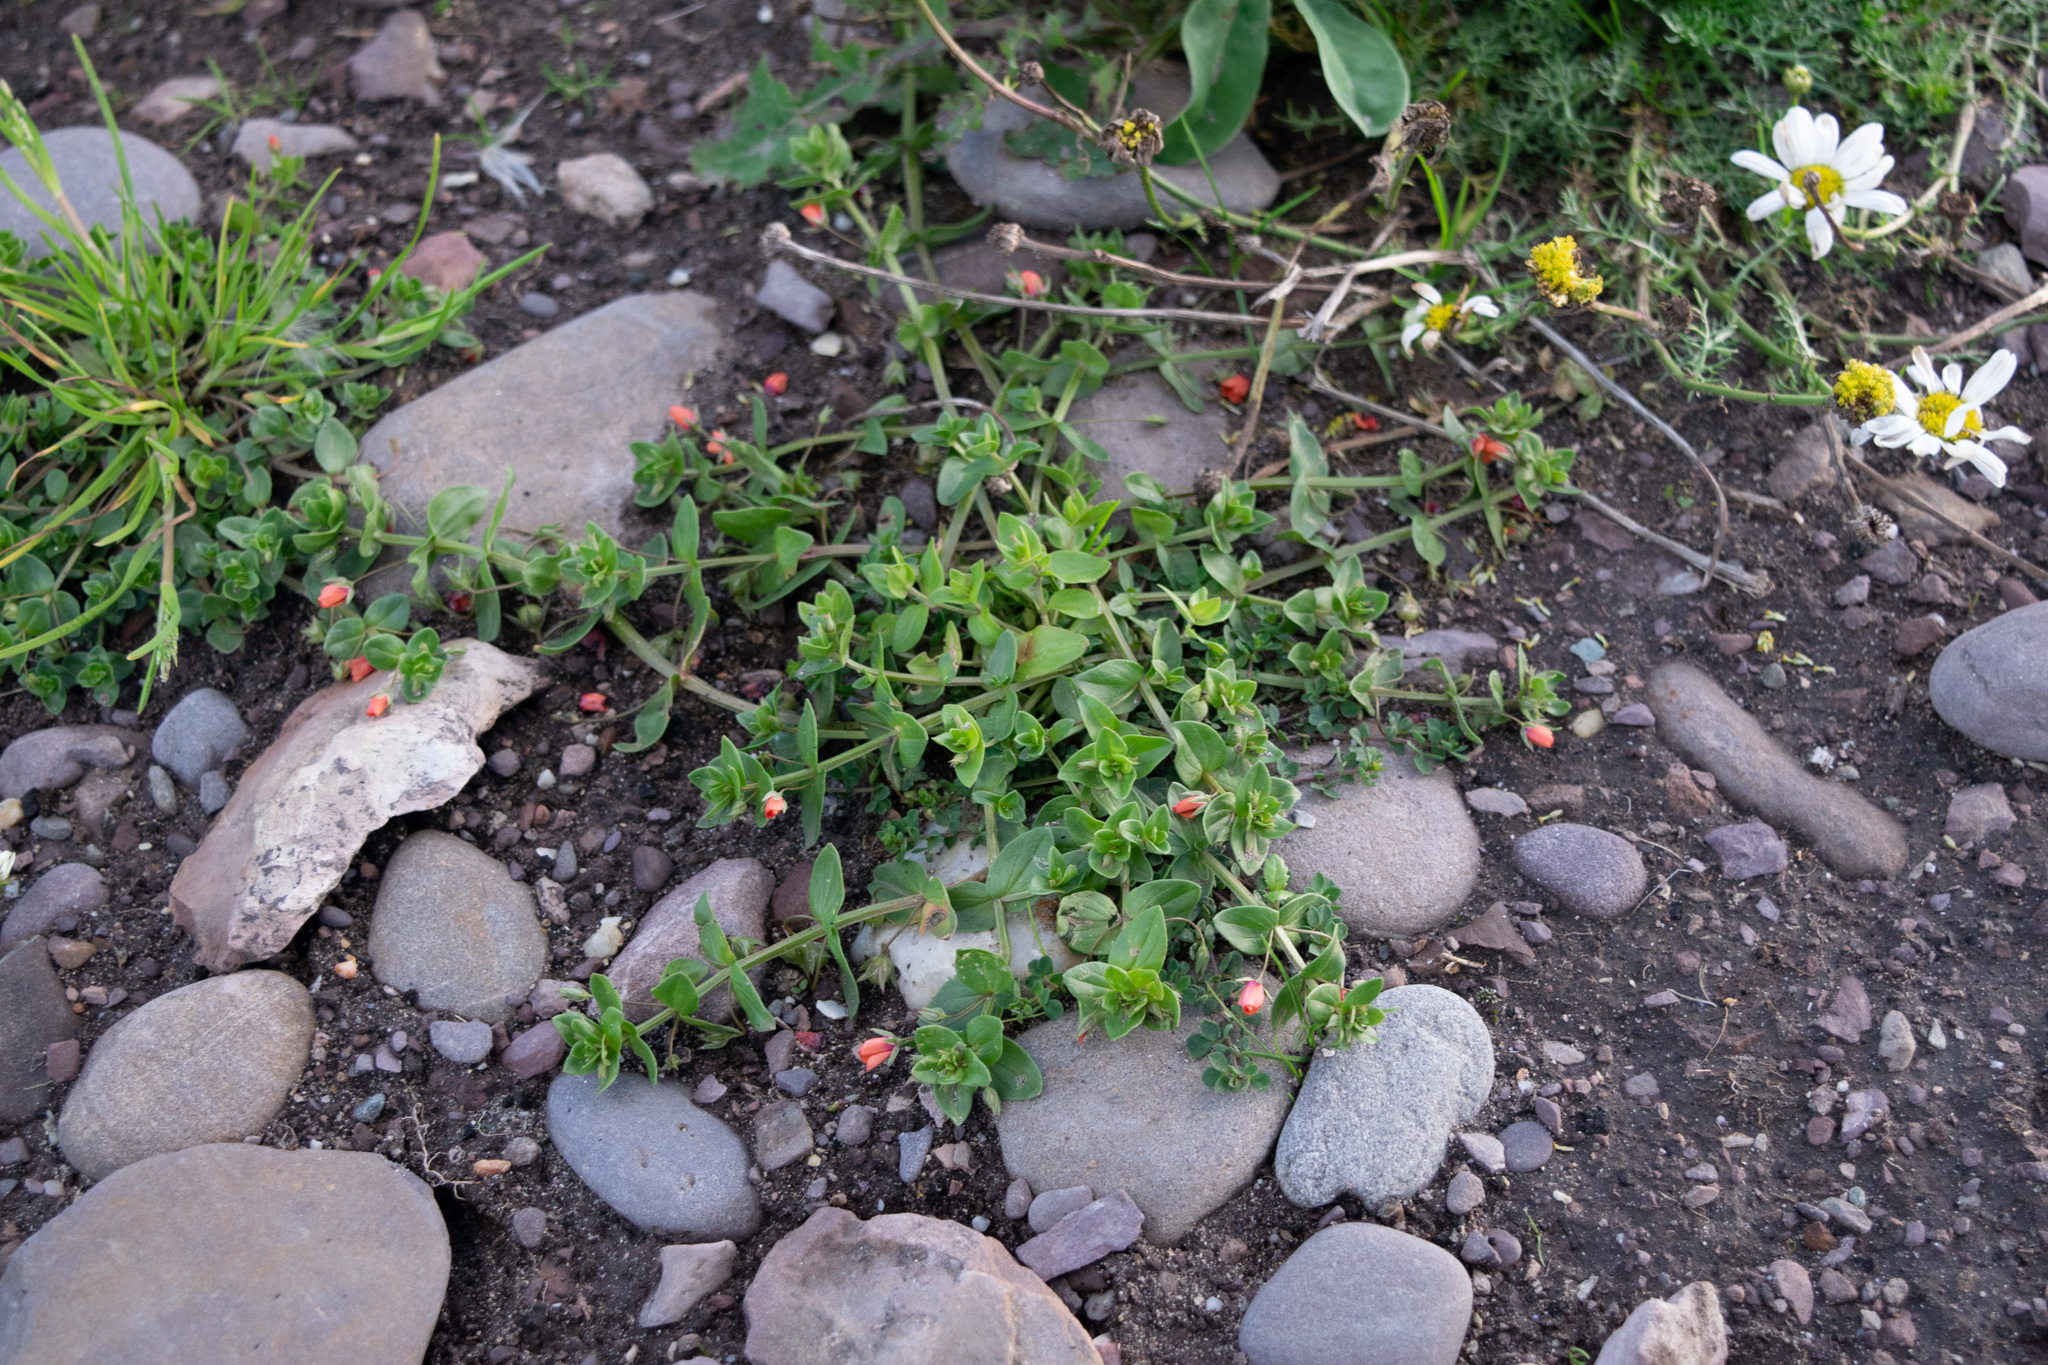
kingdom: Plantae
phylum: Tracheophyta
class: Magnoliopsida
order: Ericales
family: Primulaceae
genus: Lysimachia
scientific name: Lysimachia arvensis
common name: Scarlet pimpernel
